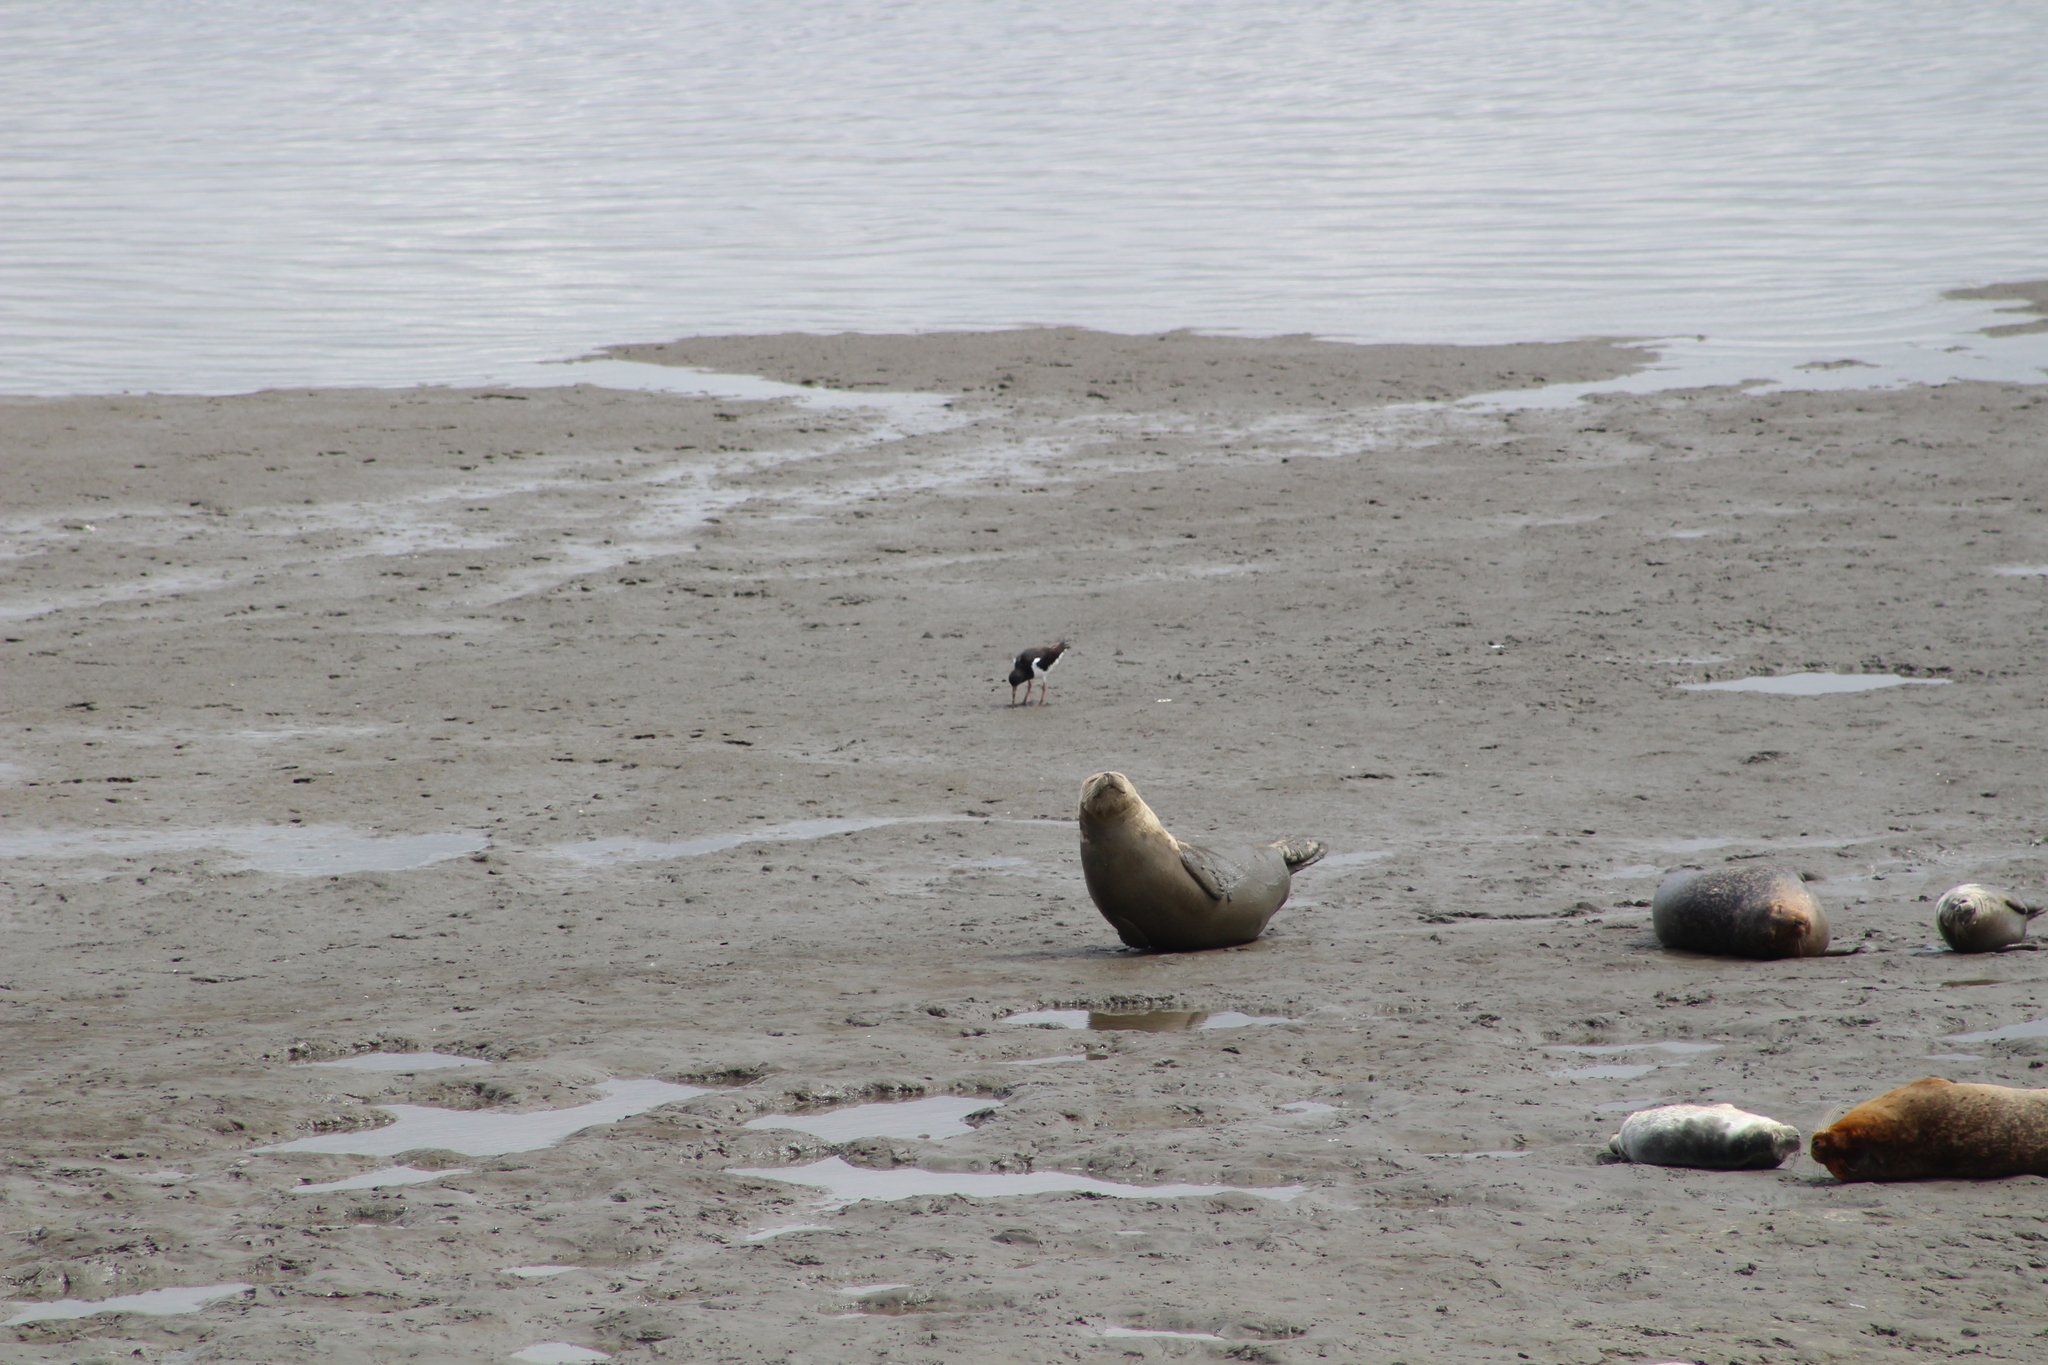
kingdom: Animalia
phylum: Chordata
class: Aves
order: Charadriiformes
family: Haematopodidae
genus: Haematopus
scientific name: Haematopus ostralegus
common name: Eurasian oystercatcher
